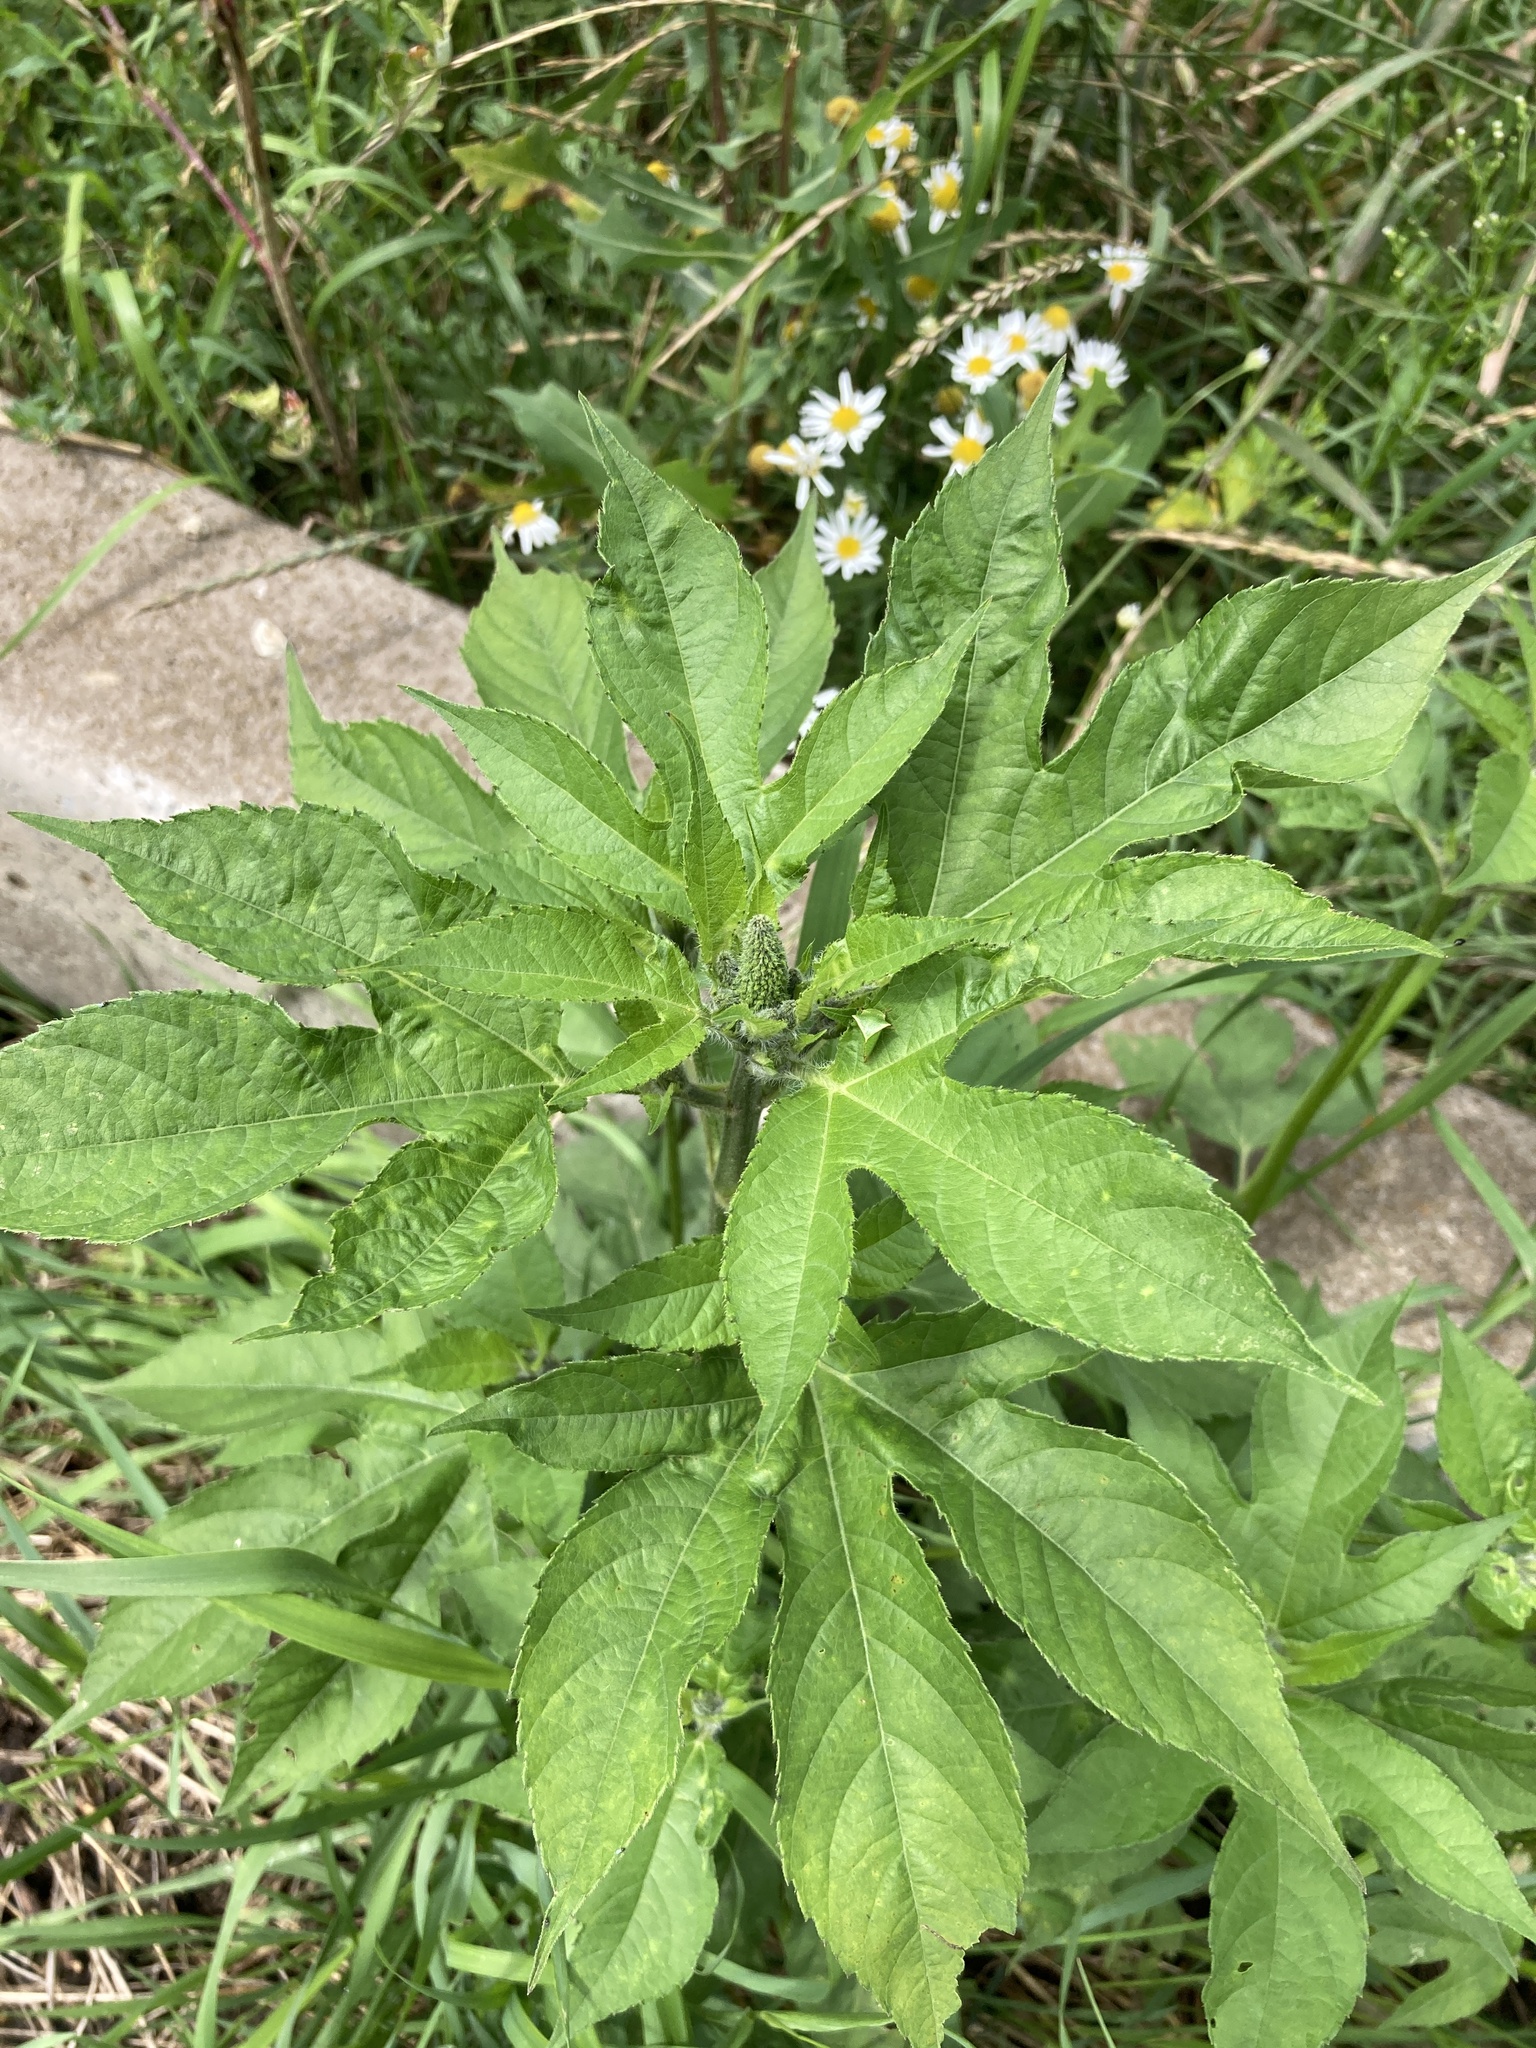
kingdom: Plantae
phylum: Tracheophyta
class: Magnoliopsida
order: Asterales
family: Asteraceae
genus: Ambrosia
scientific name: Ambrosia trifida
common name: Giant ragweed
